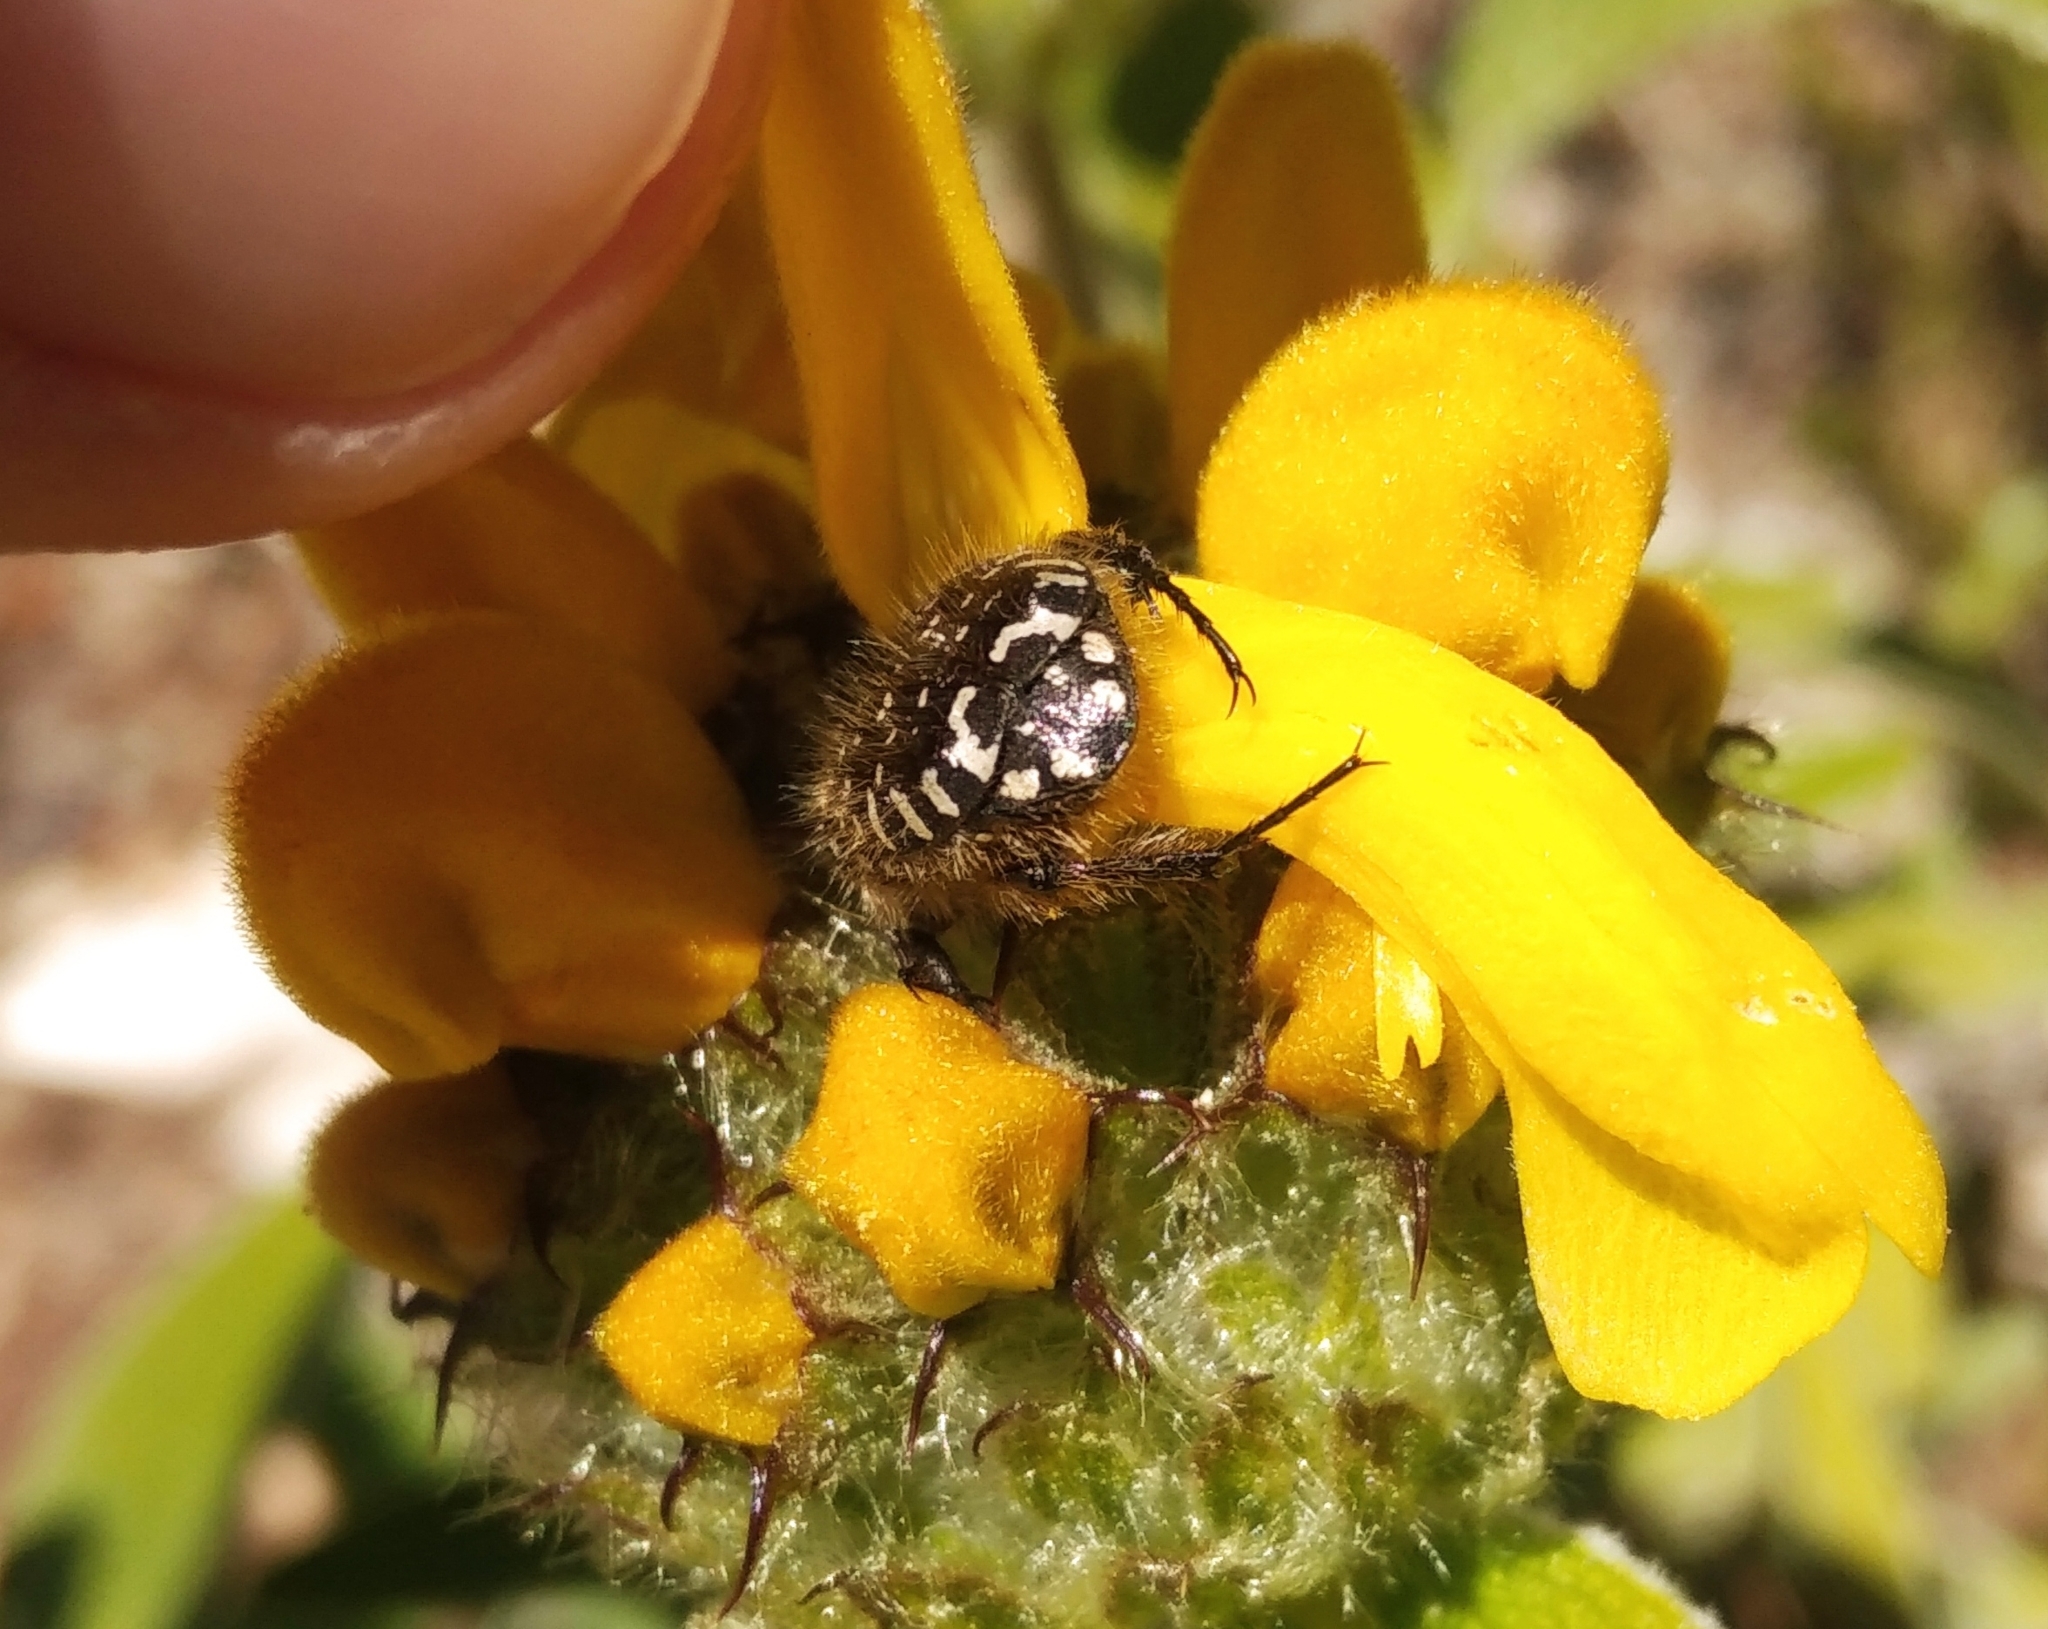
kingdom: Animalia
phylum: Arthropoda
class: Insecta
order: Coleoptera
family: Scarabaeidae
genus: Oxythyrea
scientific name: Oxythyrea funesta
